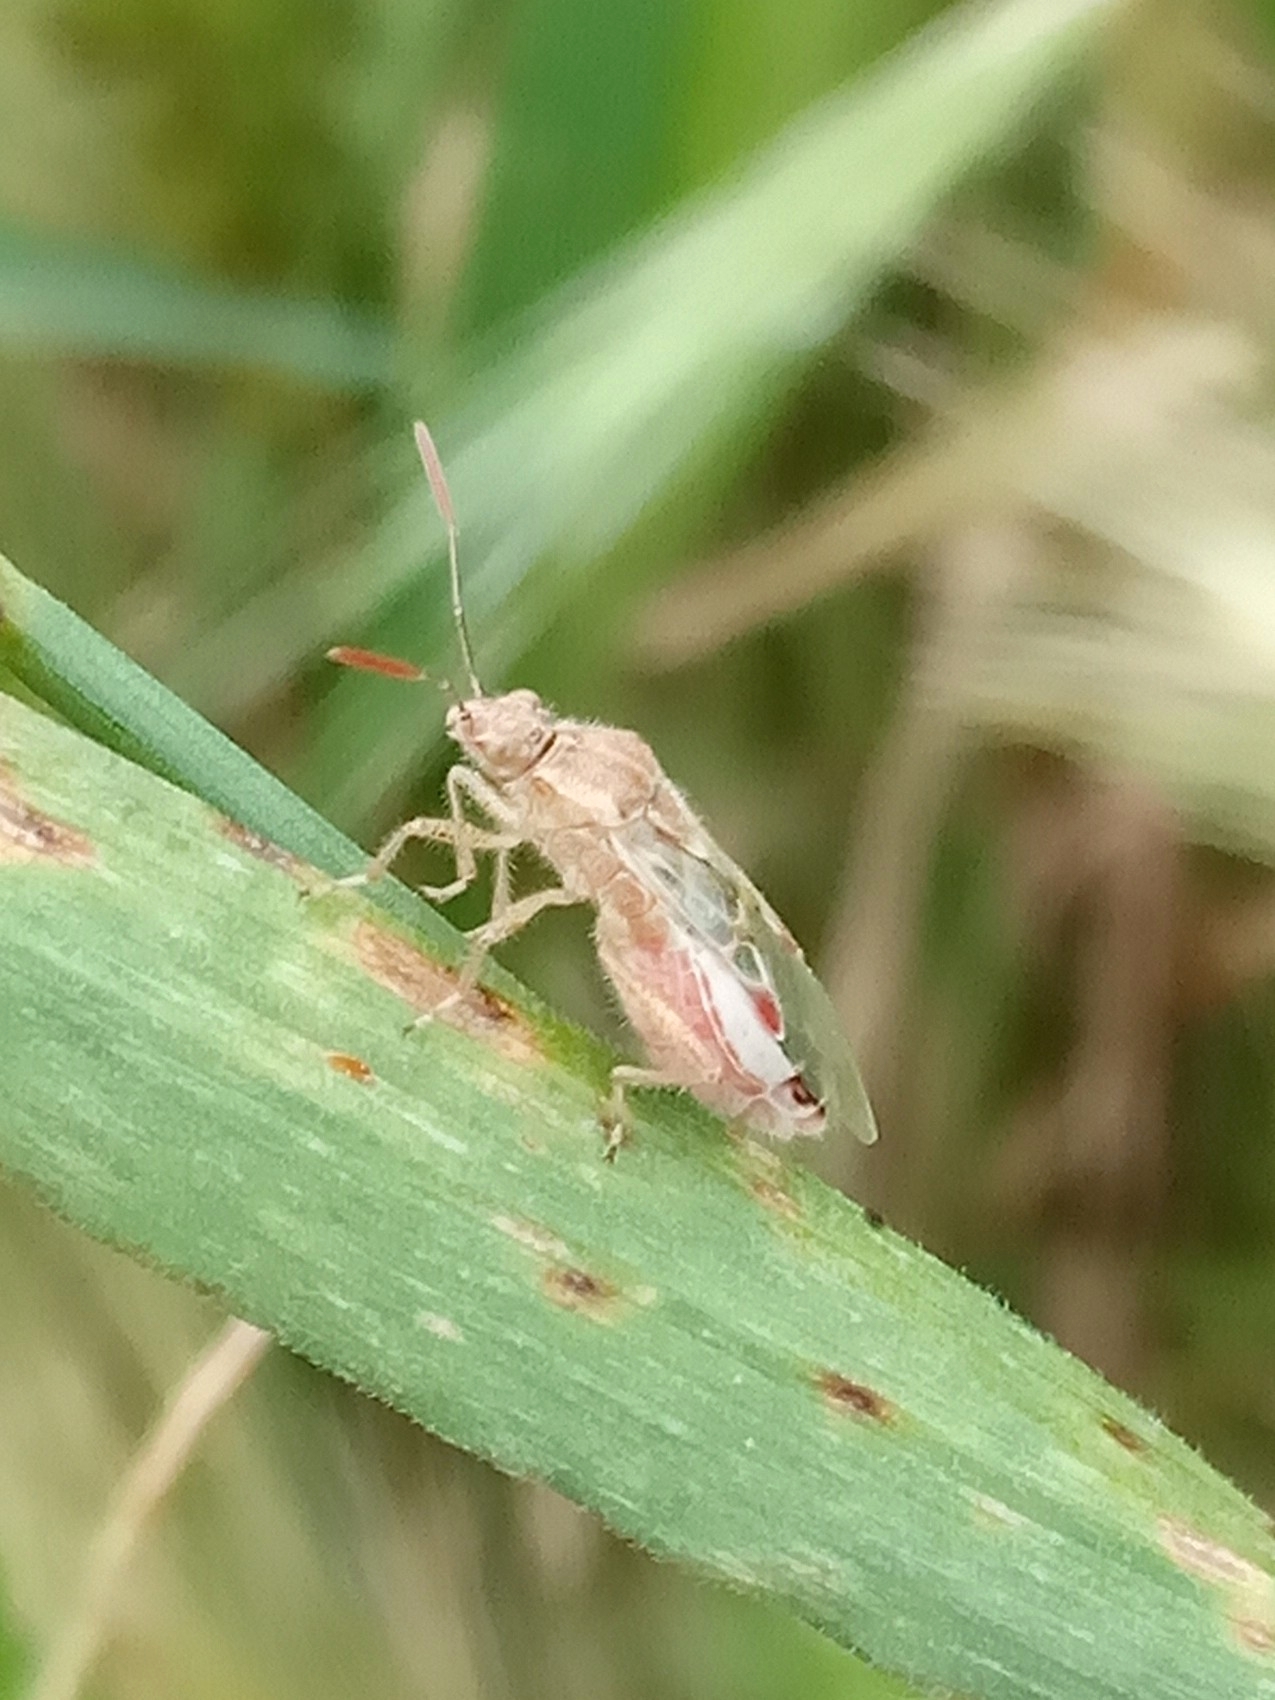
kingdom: Animalia
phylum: Arthropoda
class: Insecta
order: Hemiptera
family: Rhopalidae
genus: Liorhyssus
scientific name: Liorhyssus hyalinus
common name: Scentless plant bug
